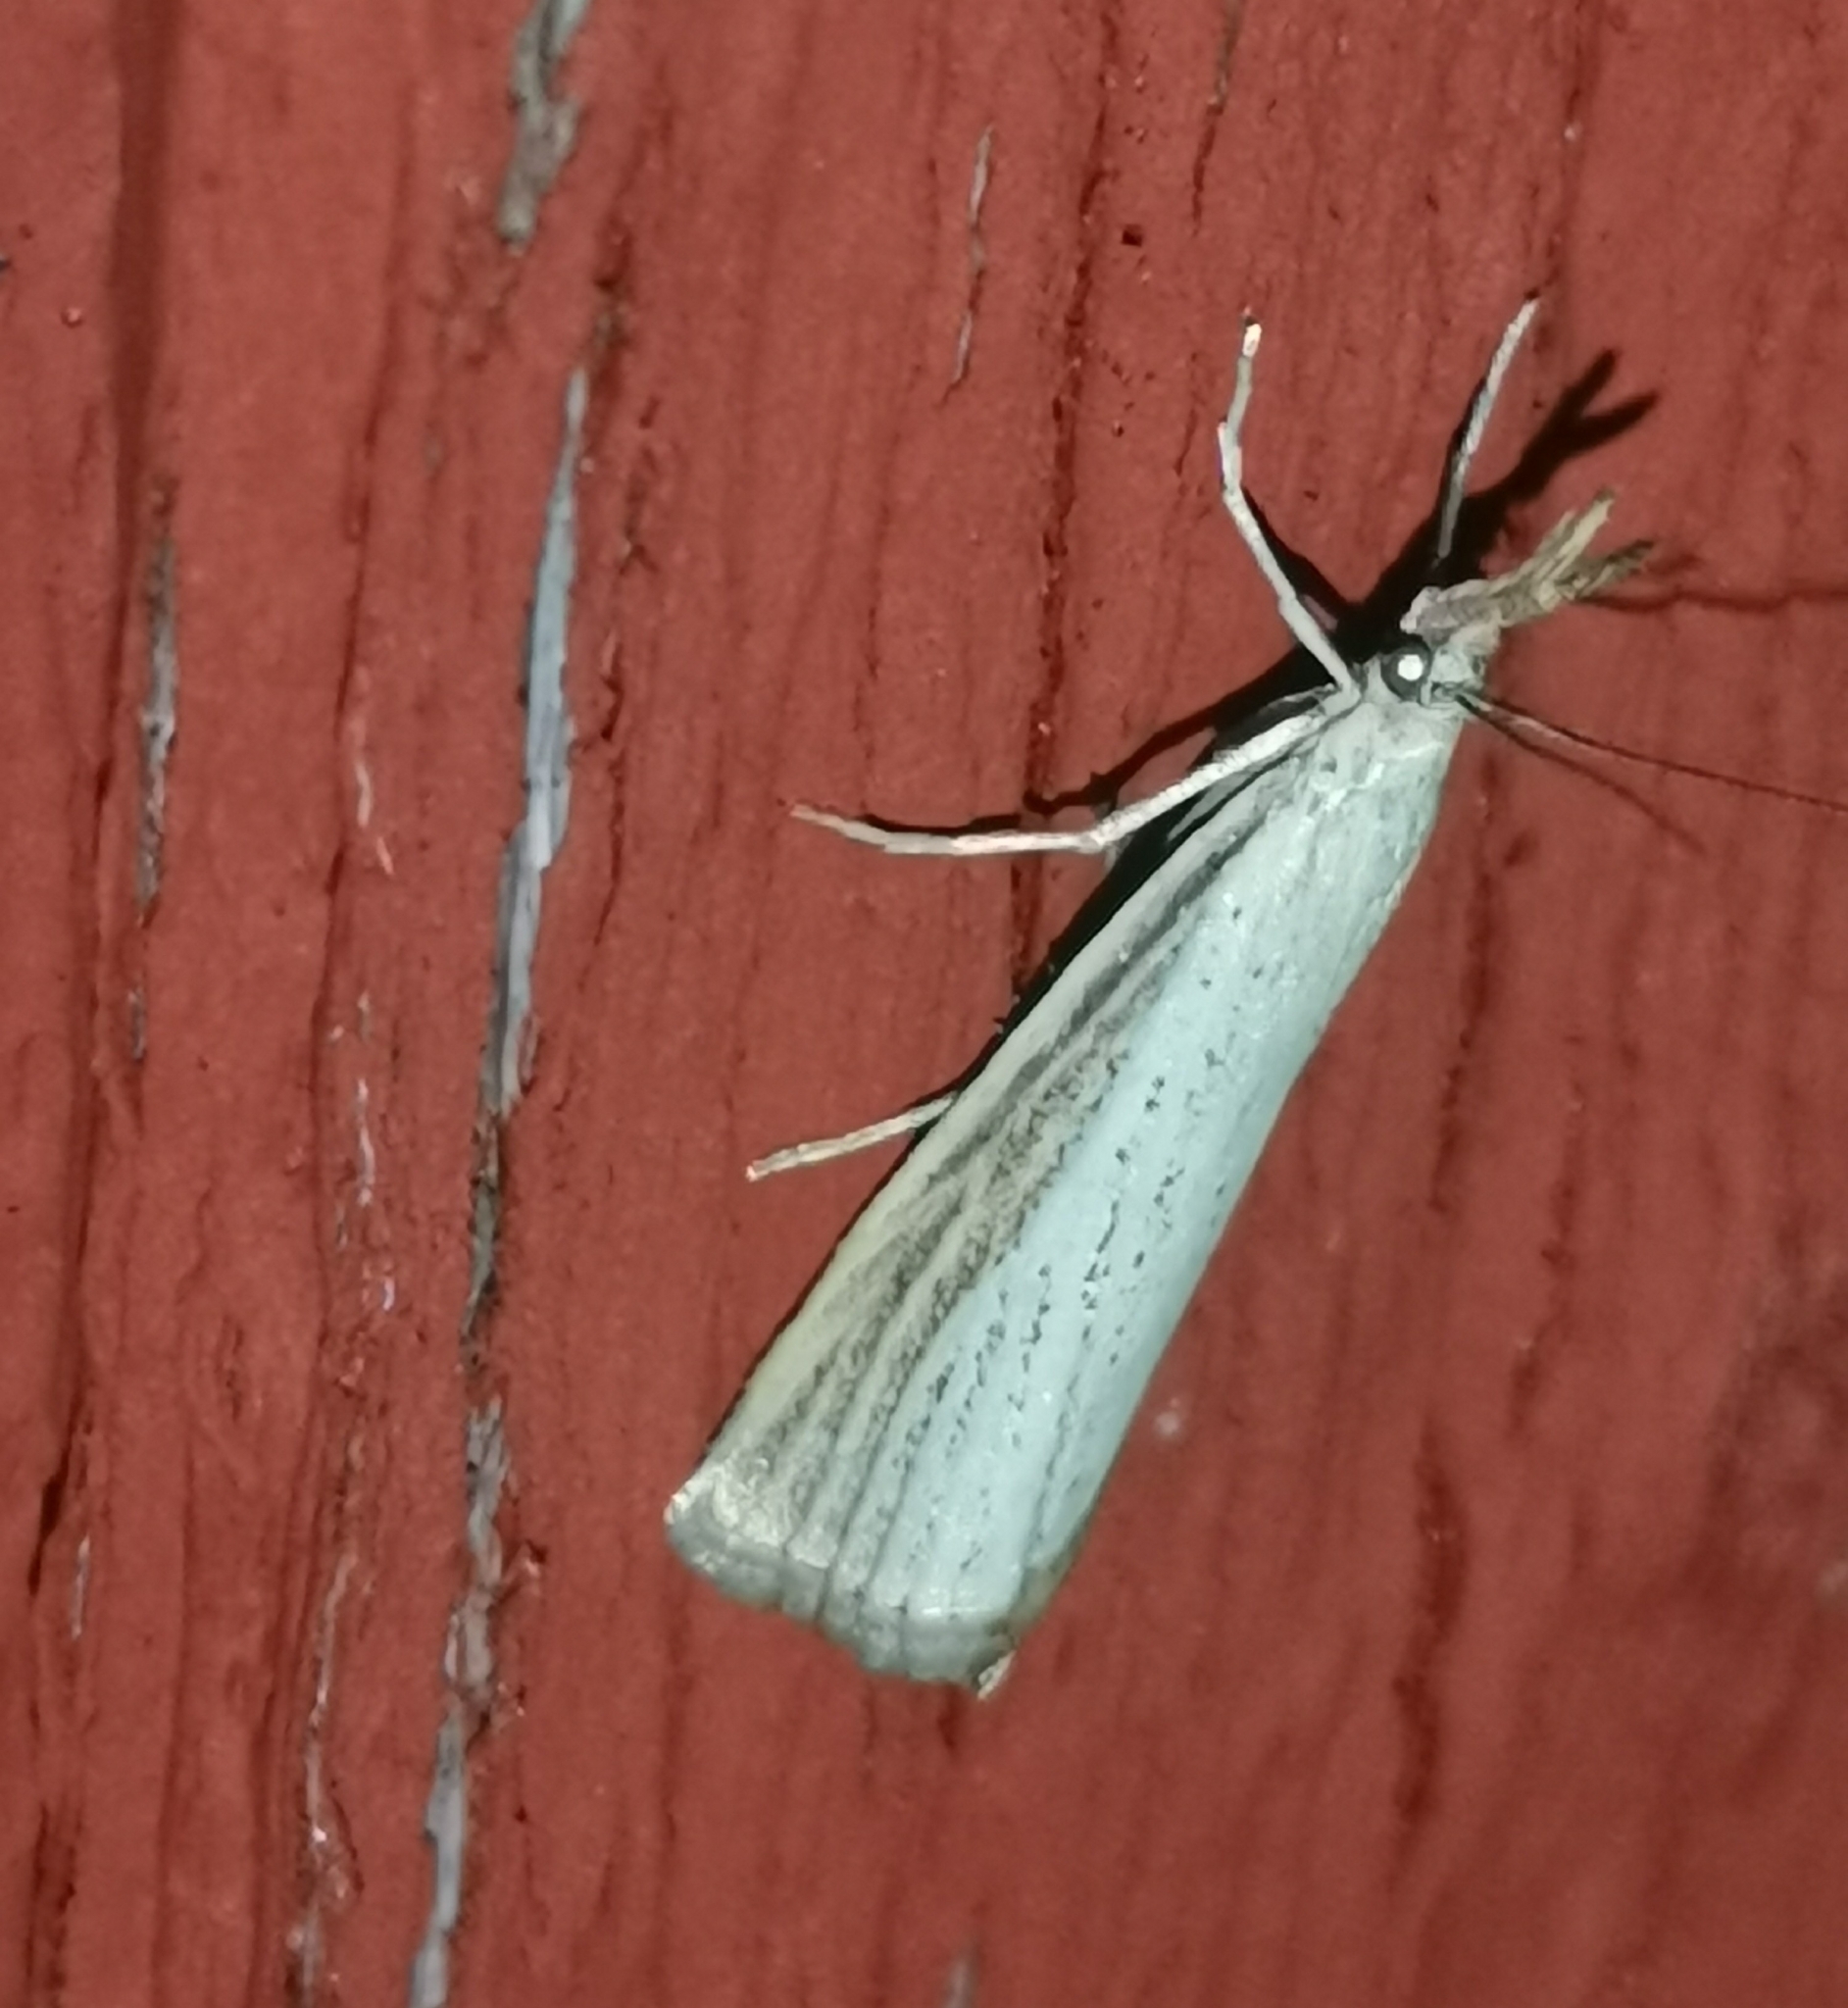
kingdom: Animalia
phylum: Arthropoda
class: Insecta
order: Lepidoptera
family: Crambidae
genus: Agriphila
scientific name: Agriphila straminella
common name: Straw grass-veneer
